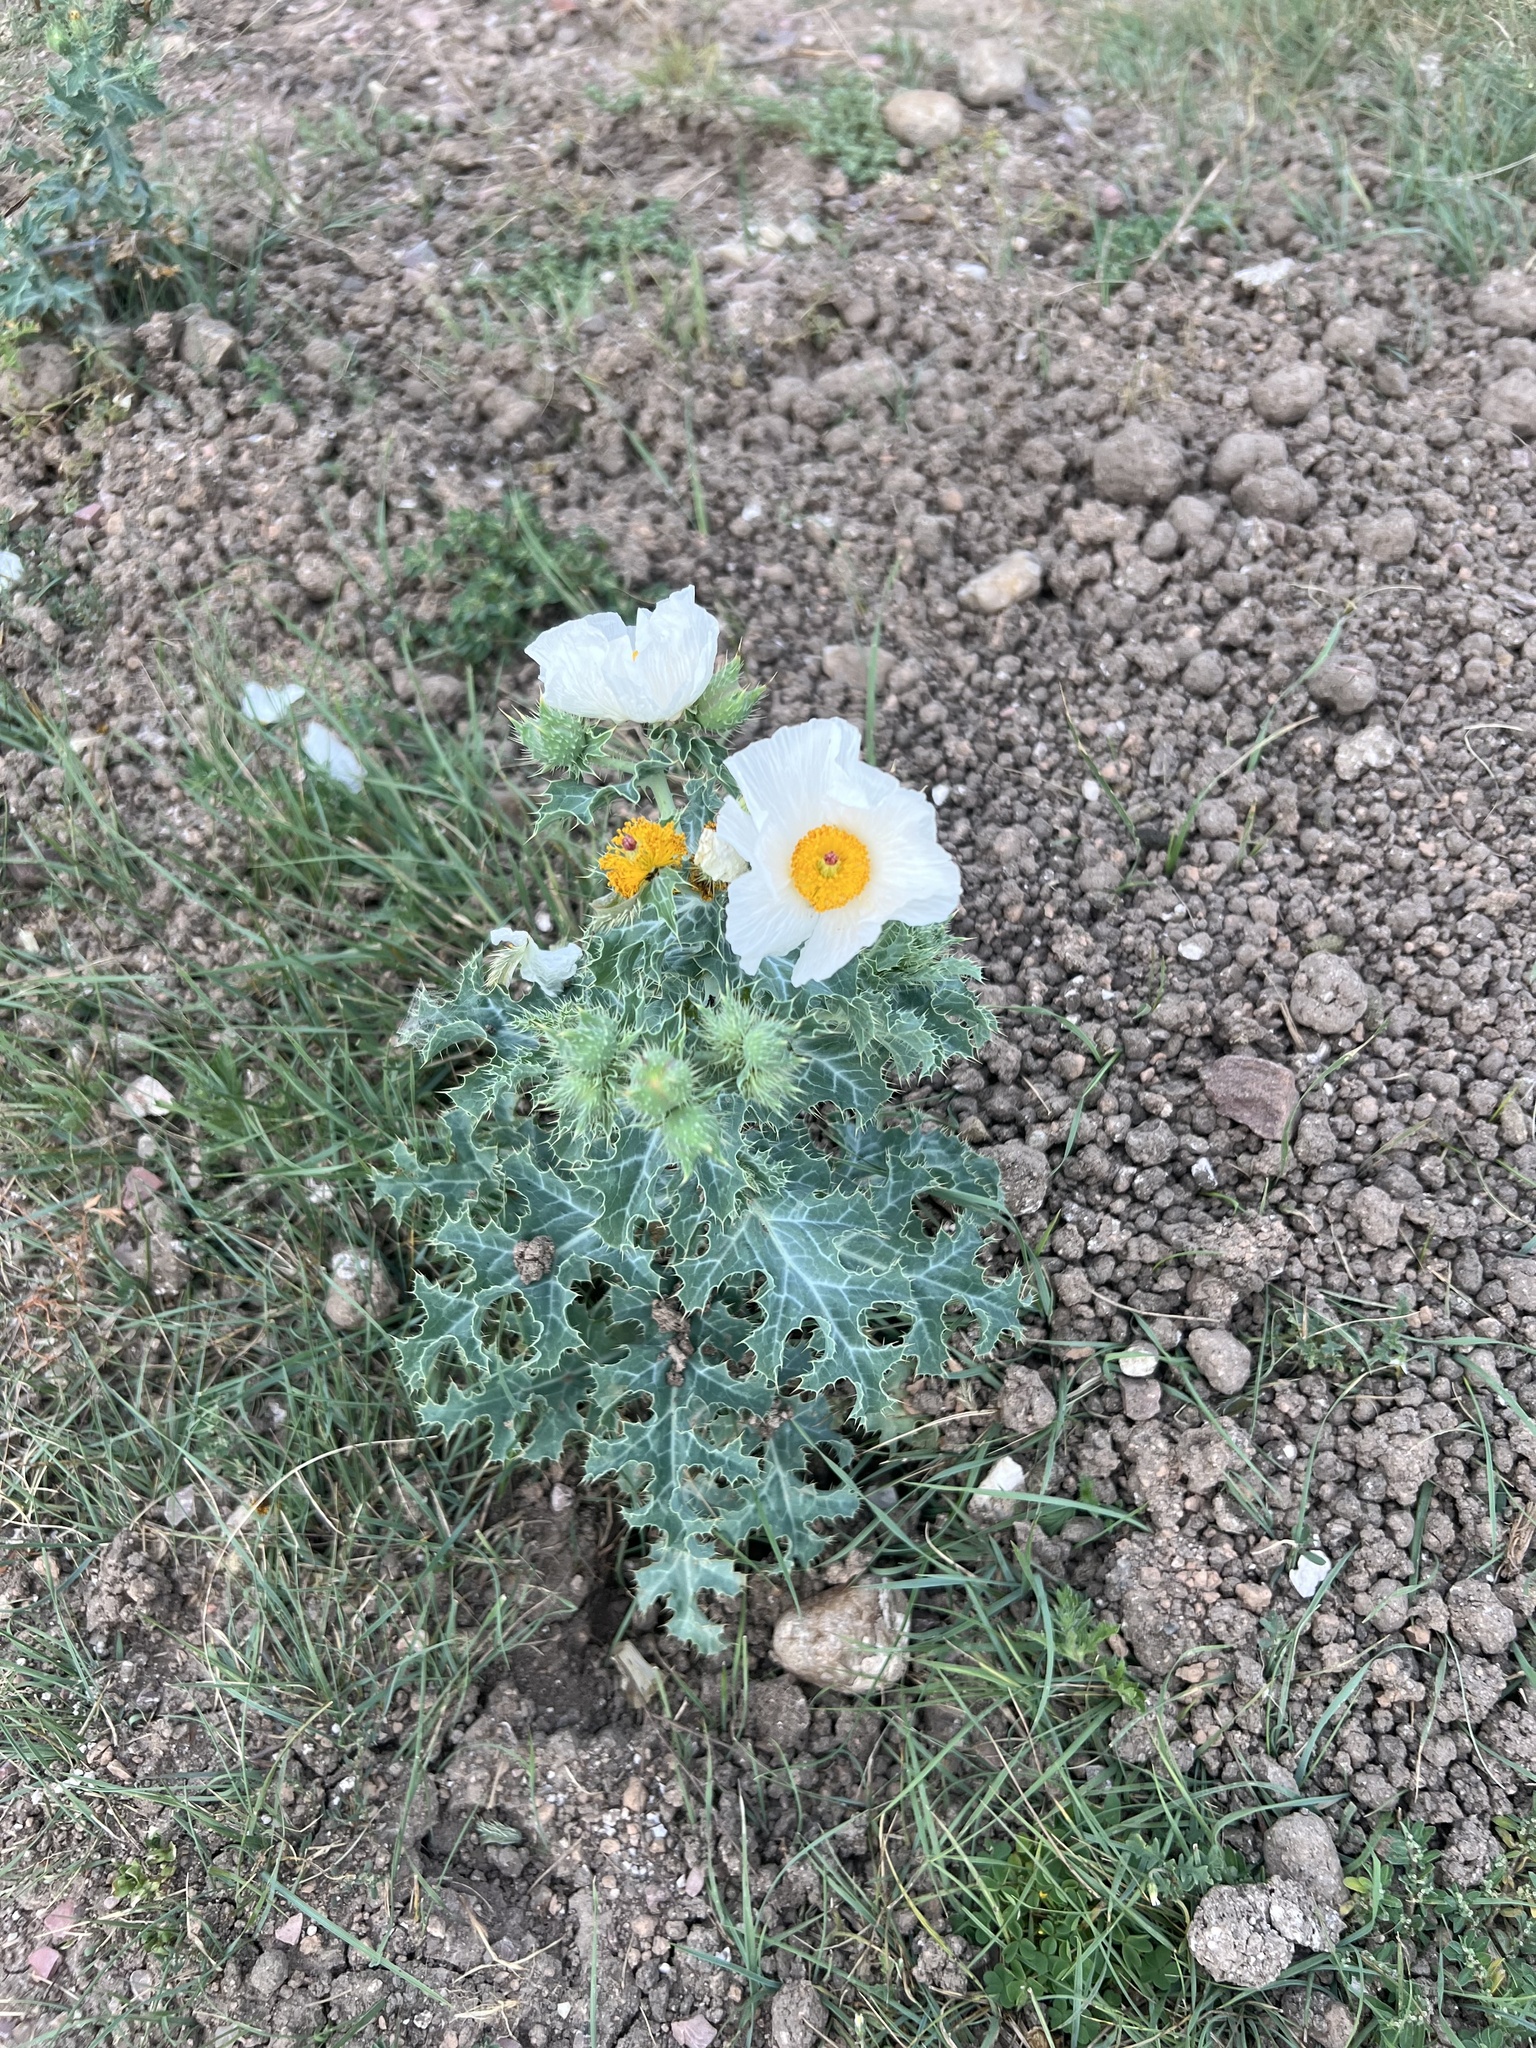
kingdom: Plantae
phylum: Tracheophyta
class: Magnoliopsida
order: Ranunculales
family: Papaveraceae
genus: Argemone
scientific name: Argemone polyanthemos
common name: Plains prickly-poppy
